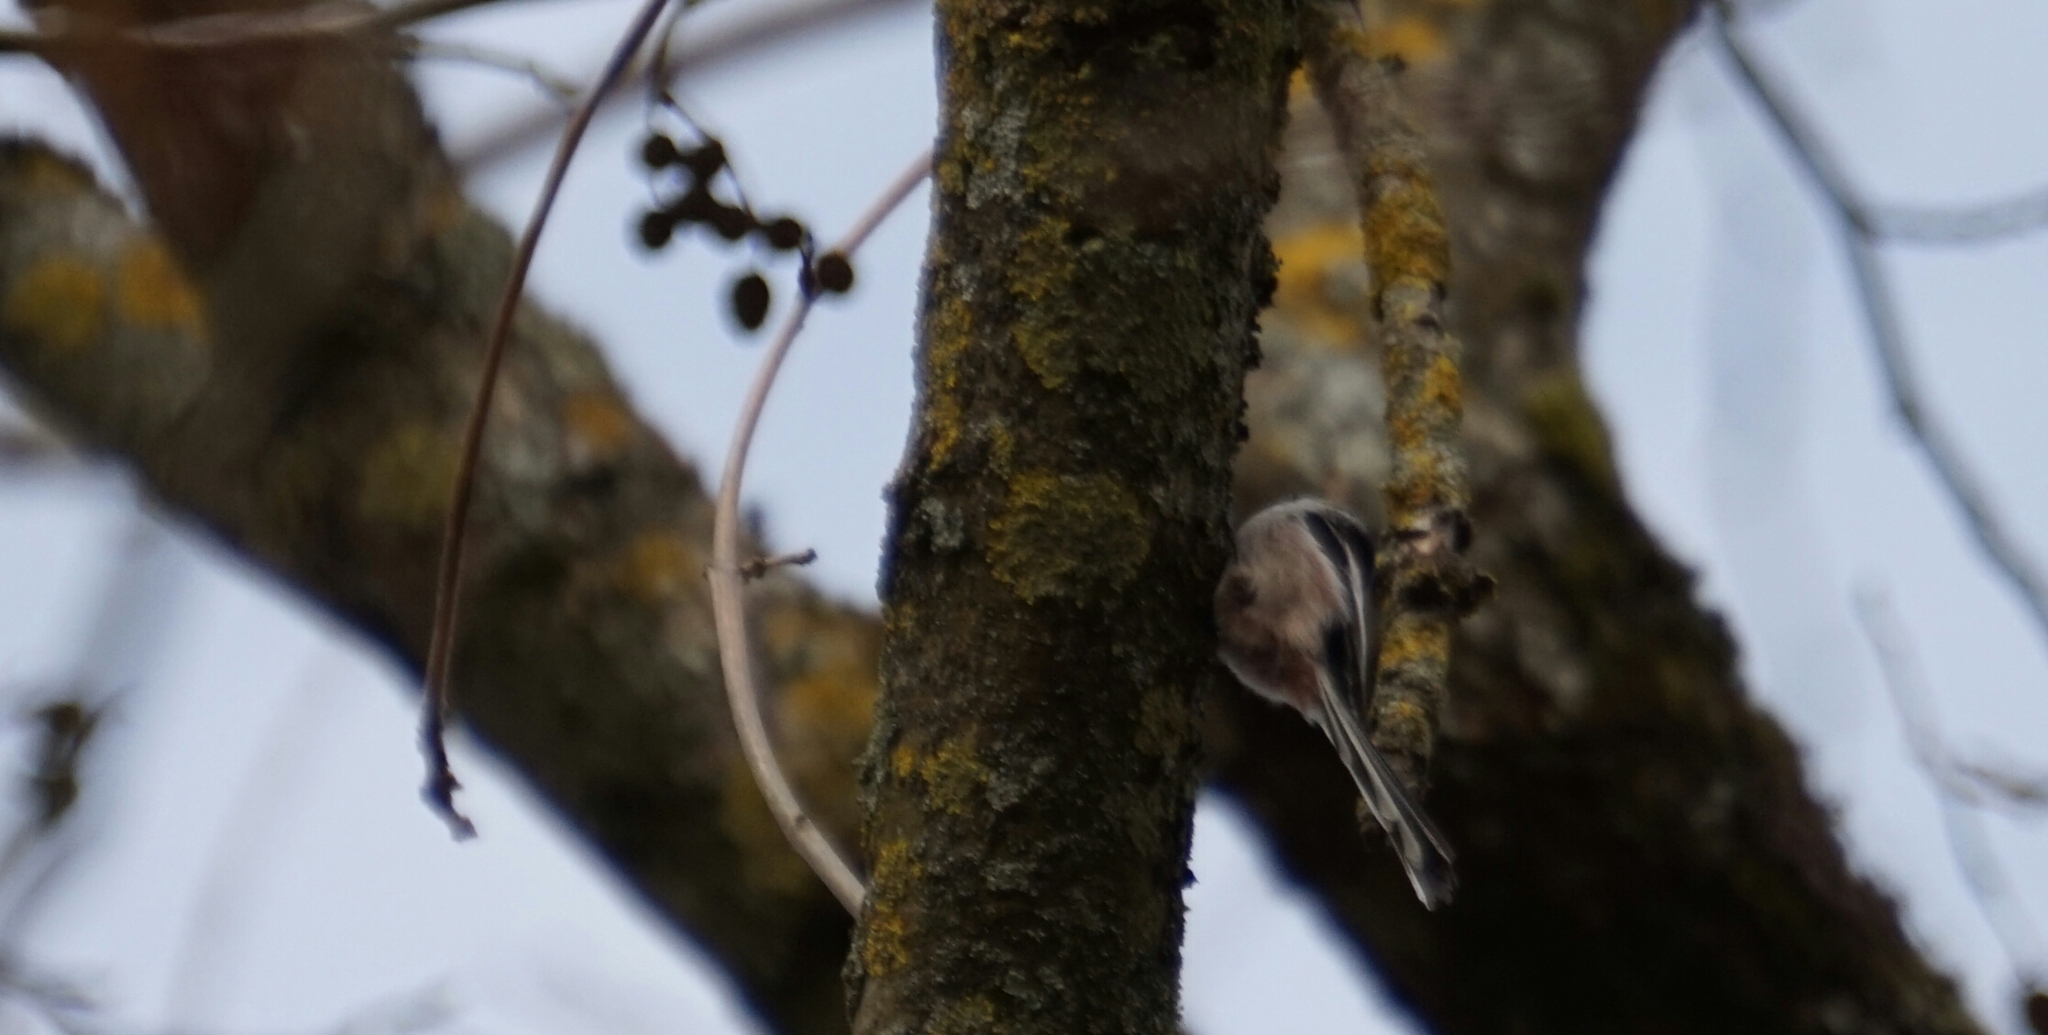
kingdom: Animalia
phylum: Chordata
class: Aves
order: Passeriformes
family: Aegithalidae
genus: Aegithalos
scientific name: Aegithalos caudatus
